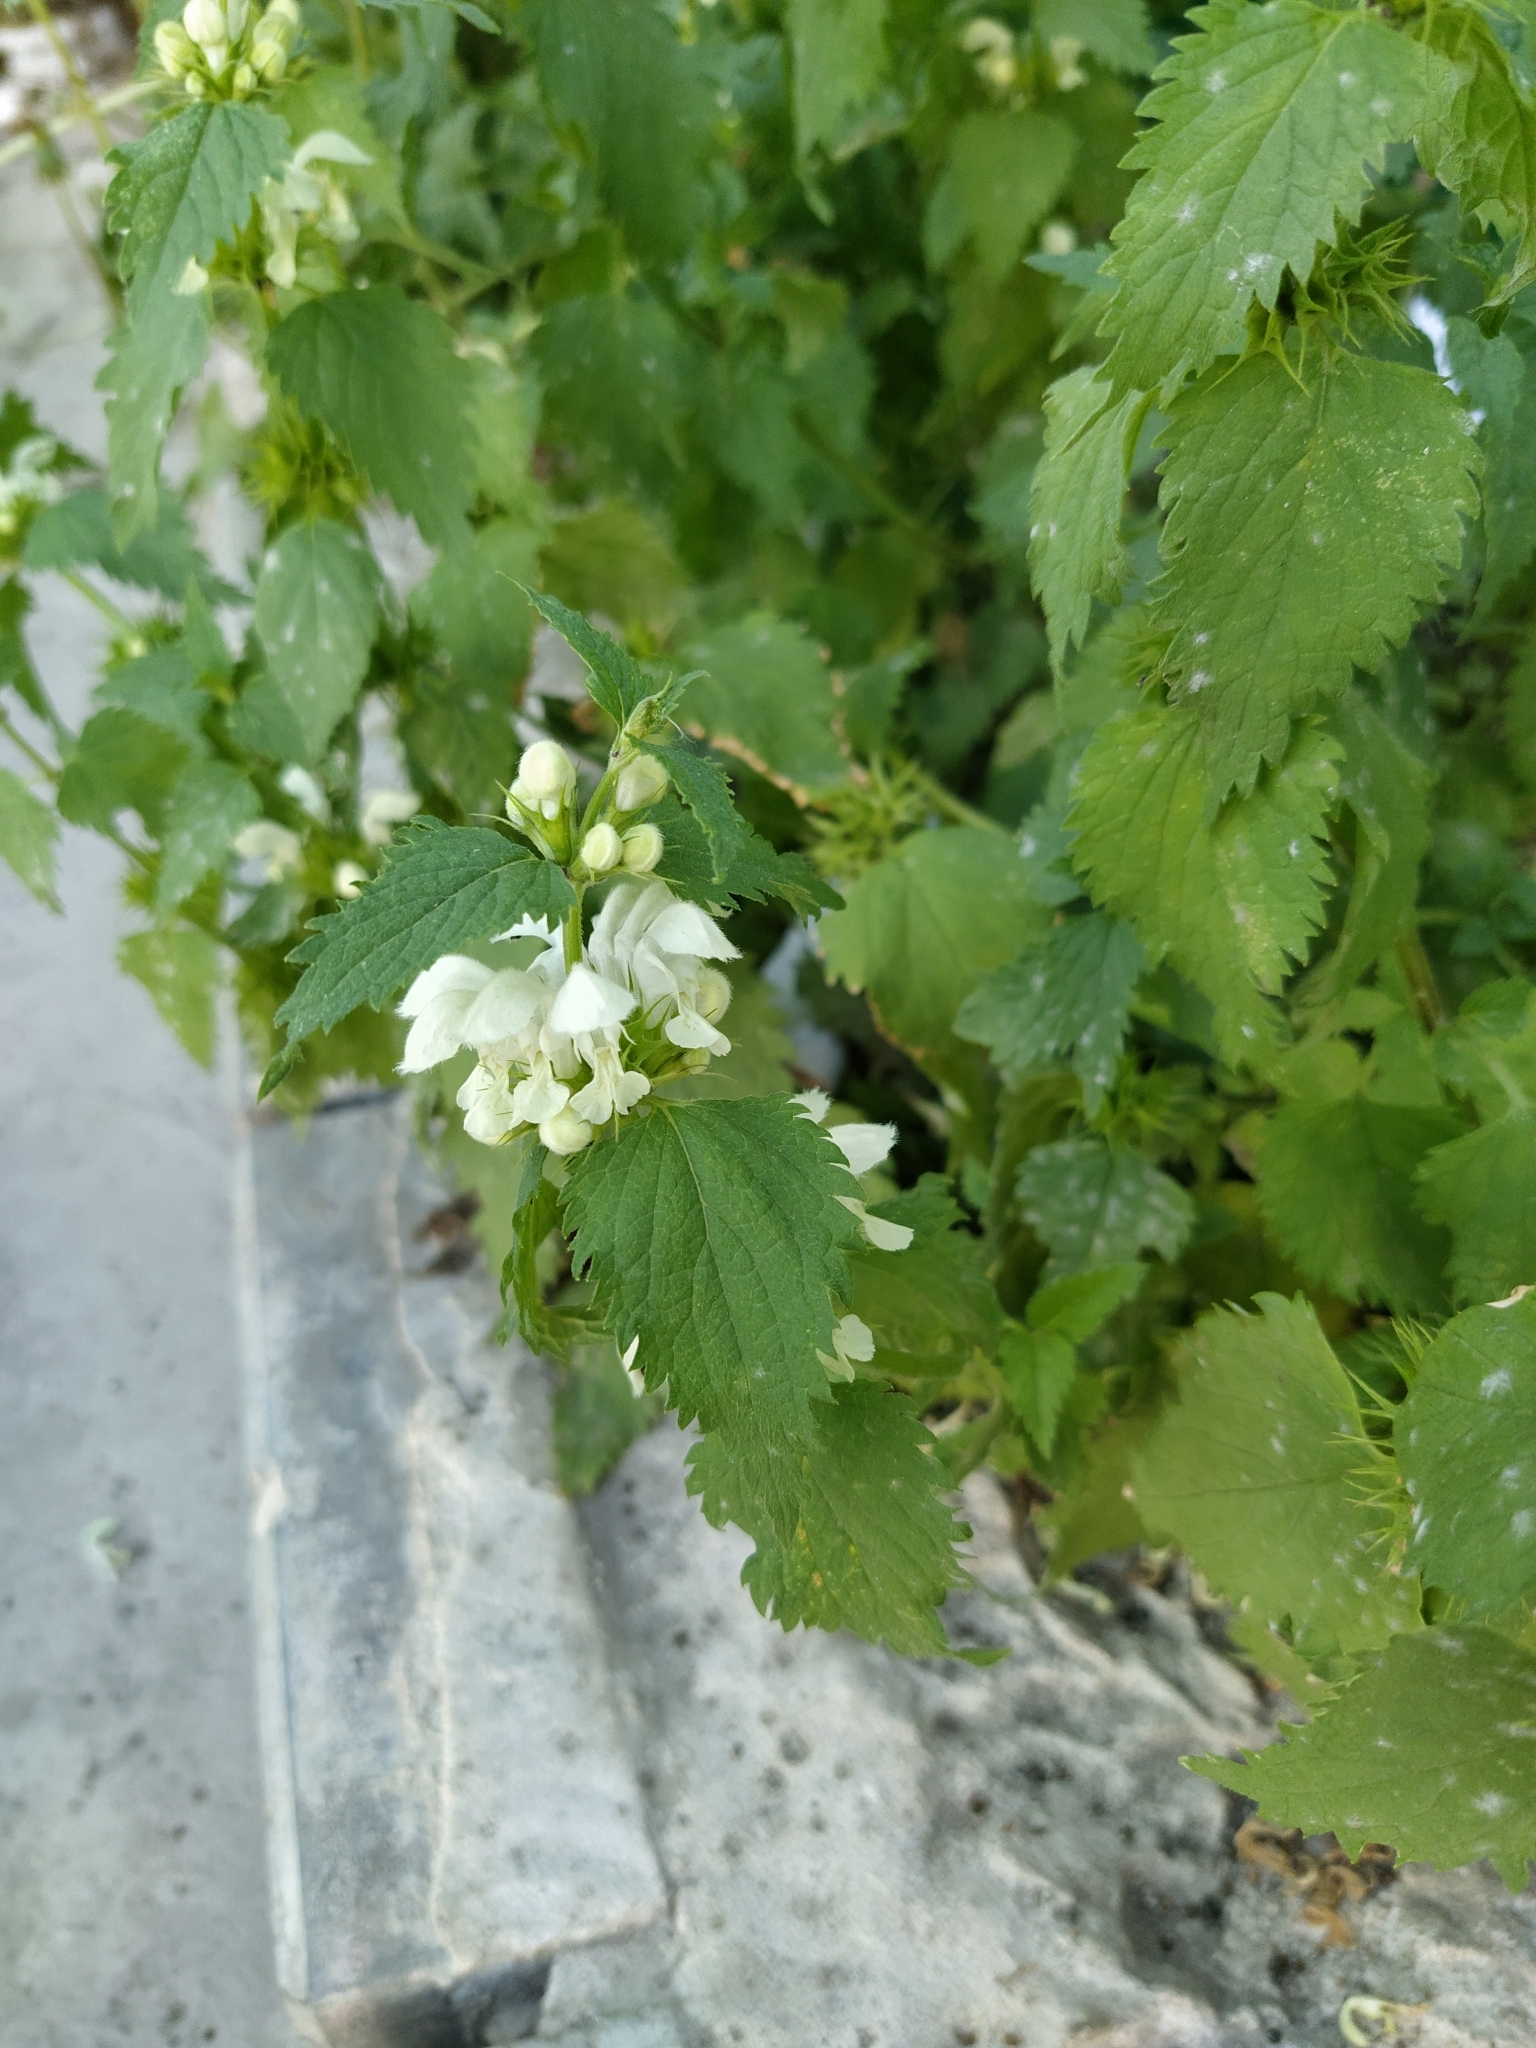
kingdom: Plantae
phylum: Tracheophyta
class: Magnoliopsida
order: Lamiales
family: Lamiaceae
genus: Lamium
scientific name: Lamium album
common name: White dead-nettle
